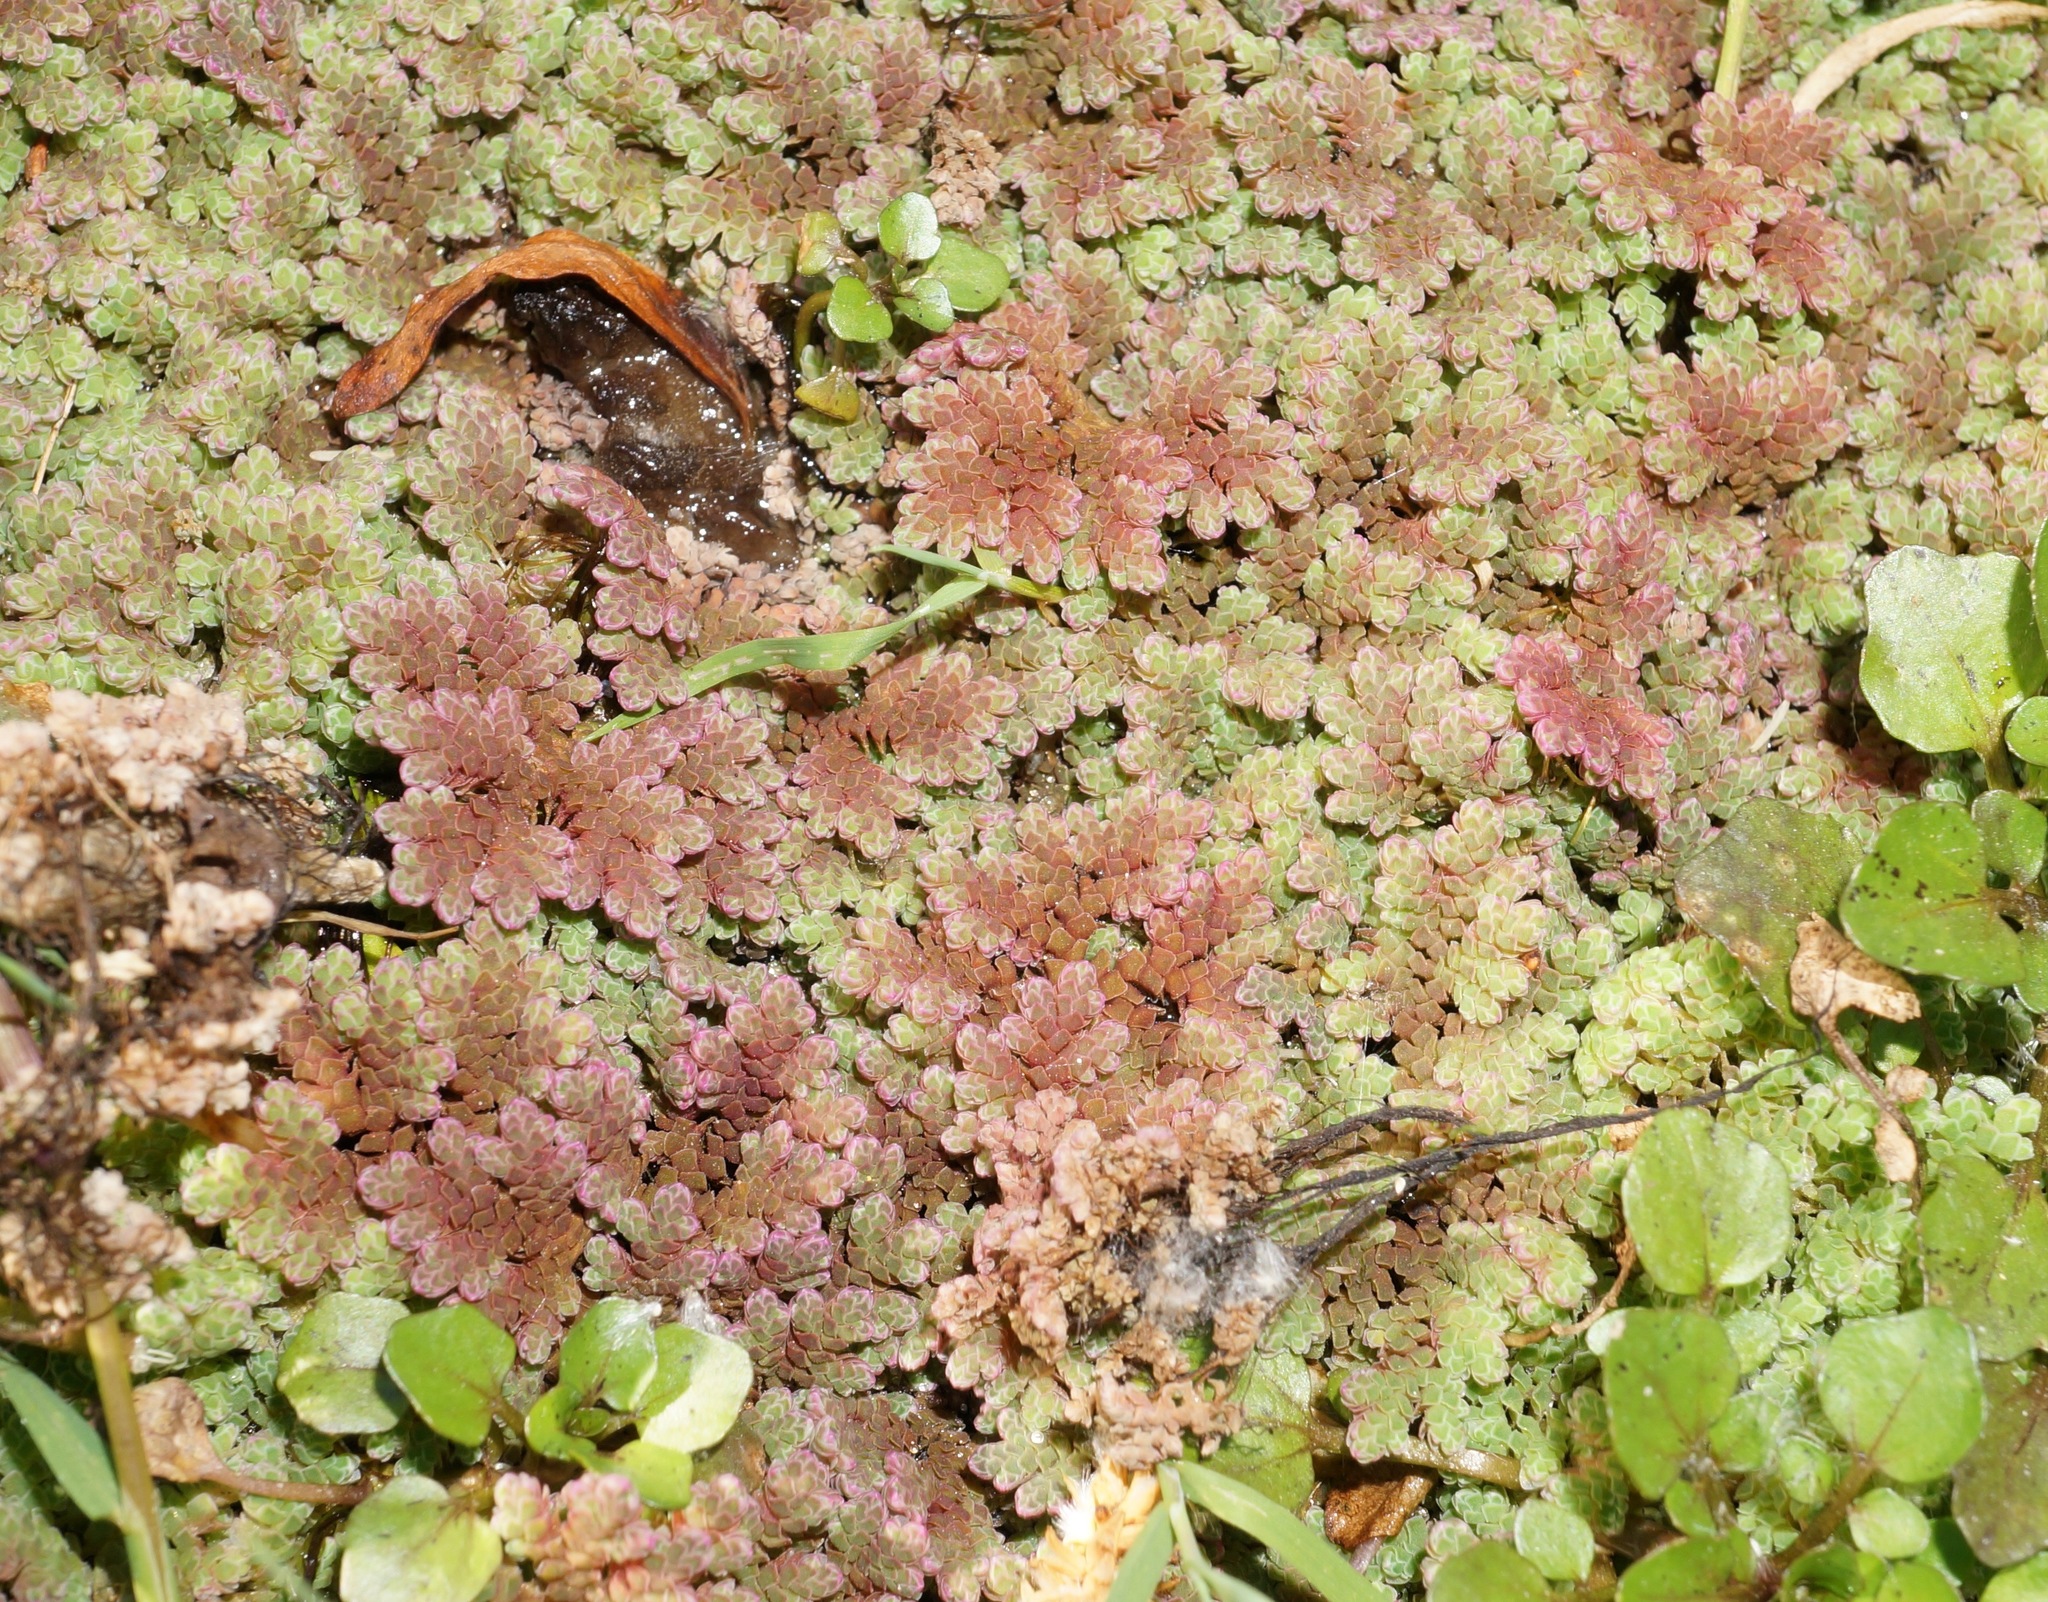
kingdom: Plantae
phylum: Tracheophyta
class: Polypodiopsida
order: Salviniales
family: Salviniaceae
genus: Azolla
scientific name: Azolla rubra
